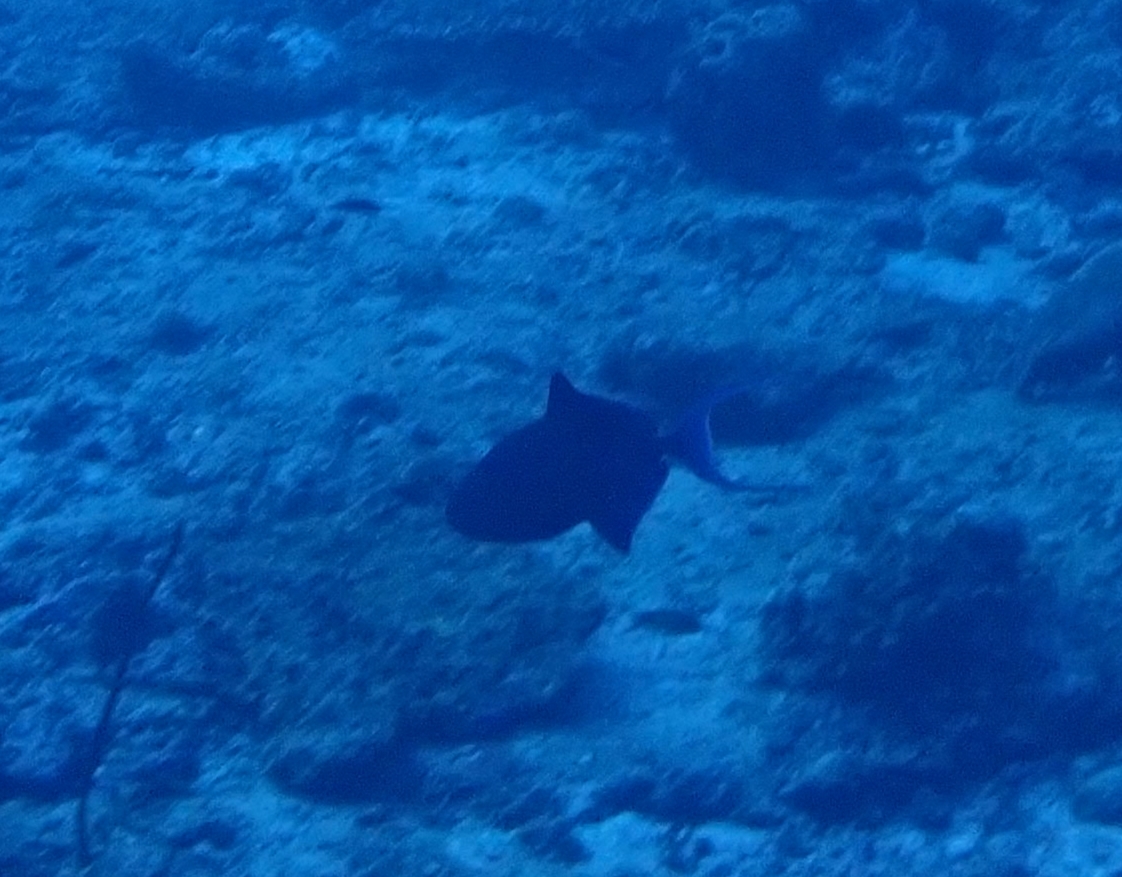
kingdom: Animalia
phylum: Chordata
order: Tetraodontiformes
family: Balistidae
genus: Odonus
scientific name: Odonus niger
